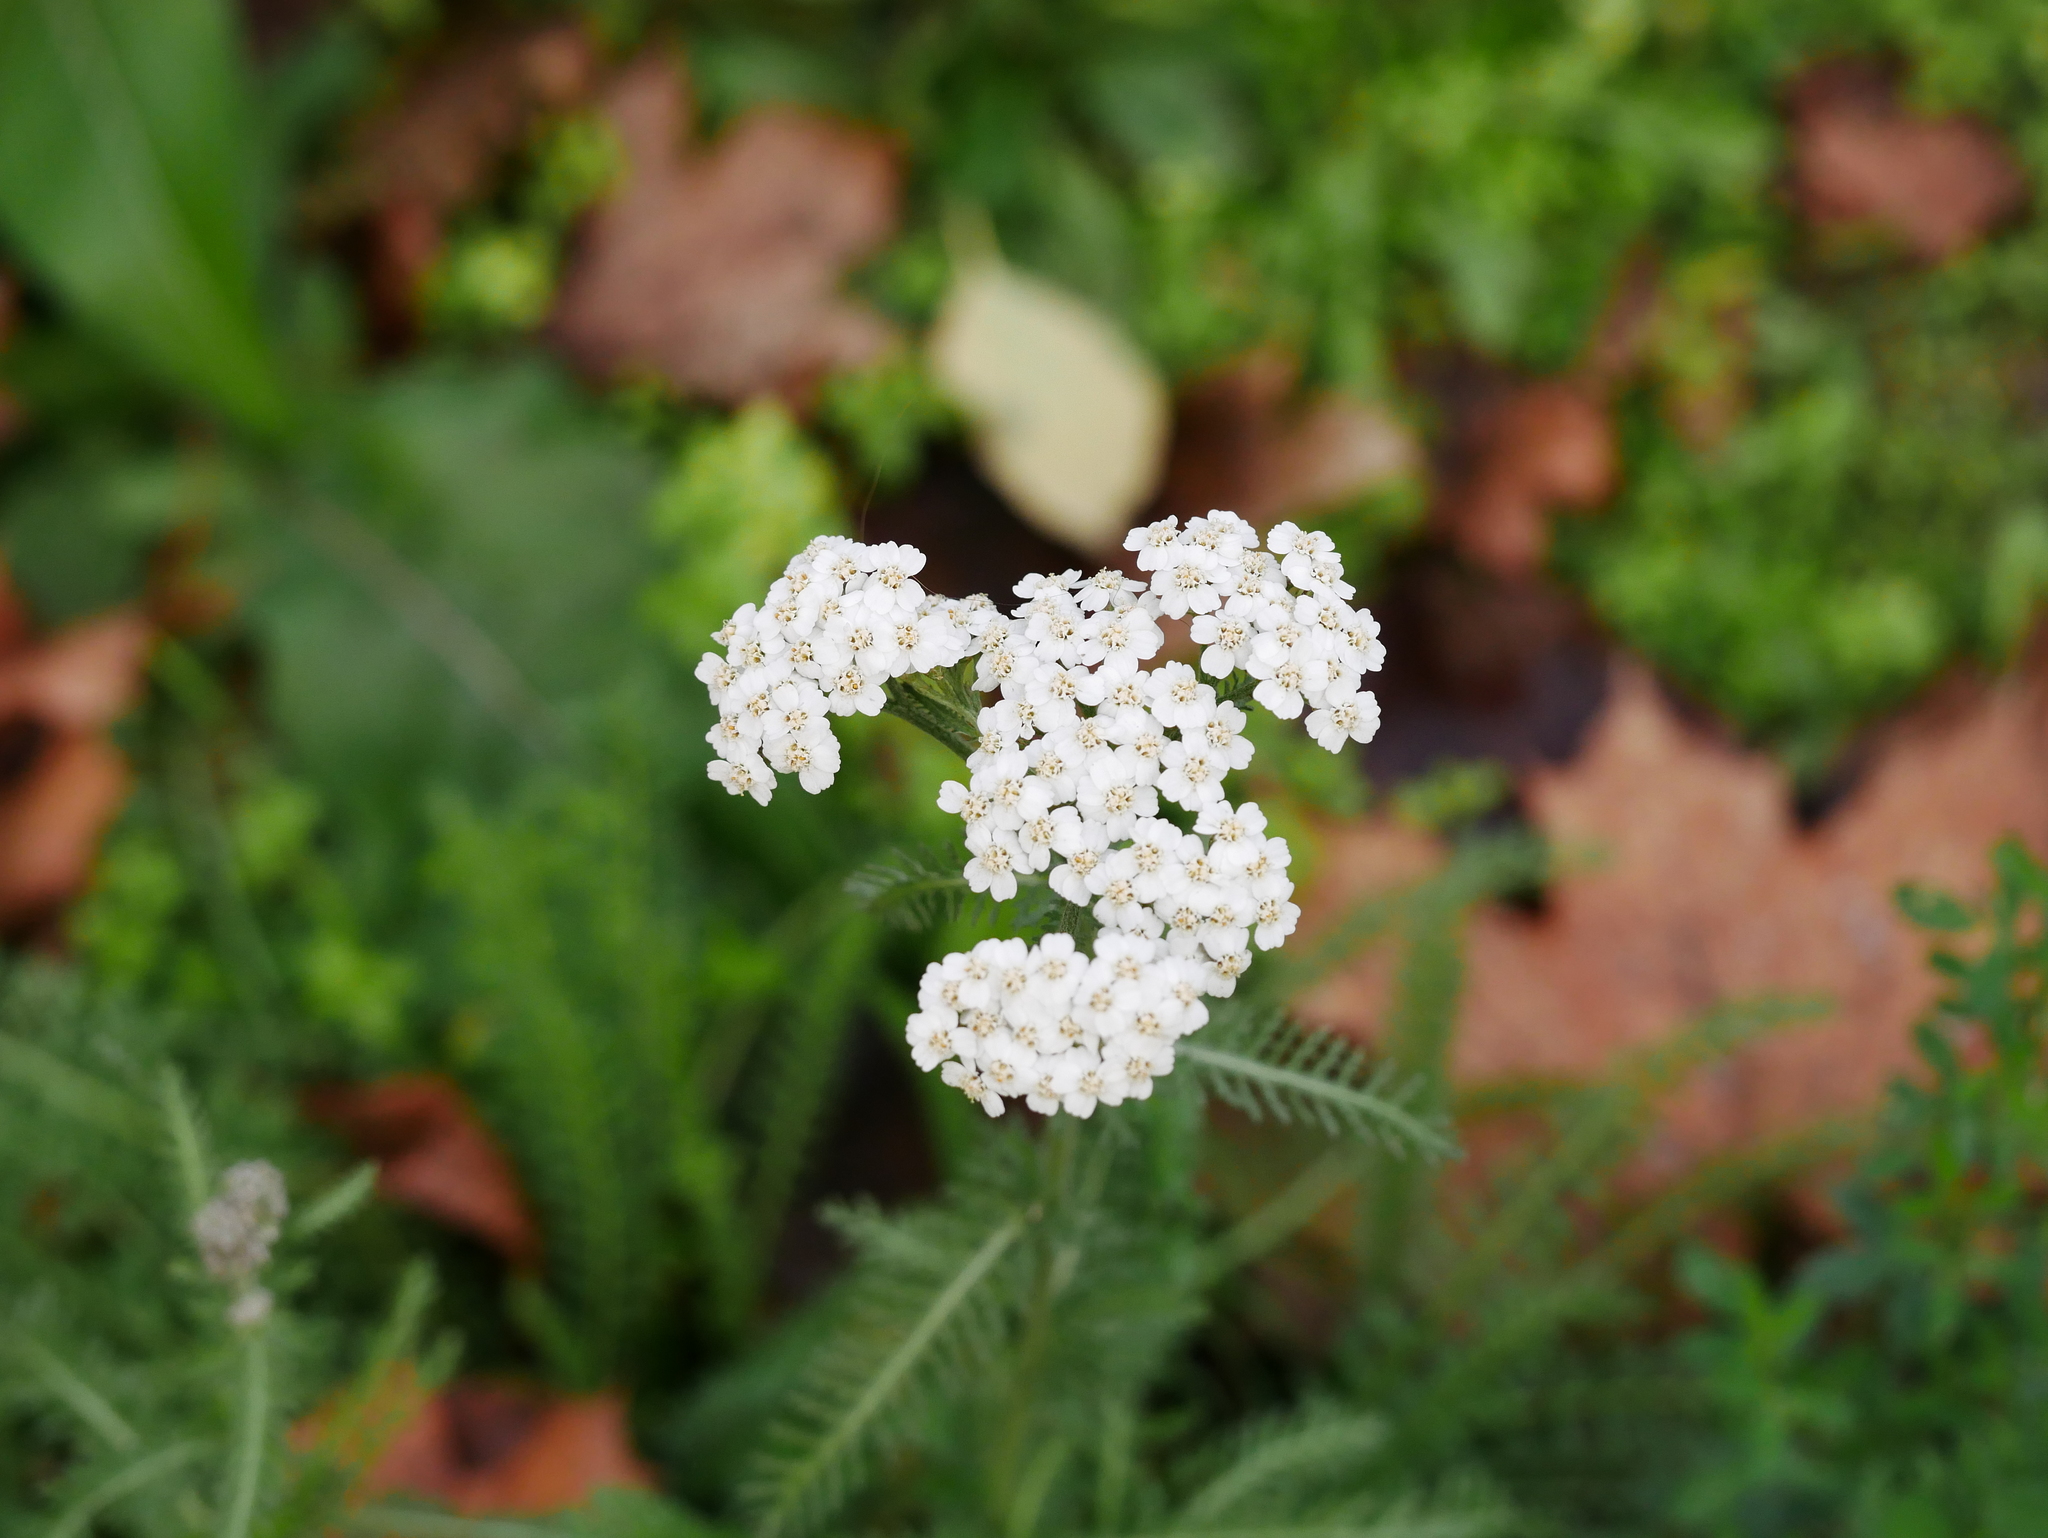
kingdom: Plantae
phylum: Tracheophyta
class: Magnoliopsida
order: Asterales
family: Asteraceae
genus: Achillea
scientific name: Achillea millefolium
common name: Yarrow
